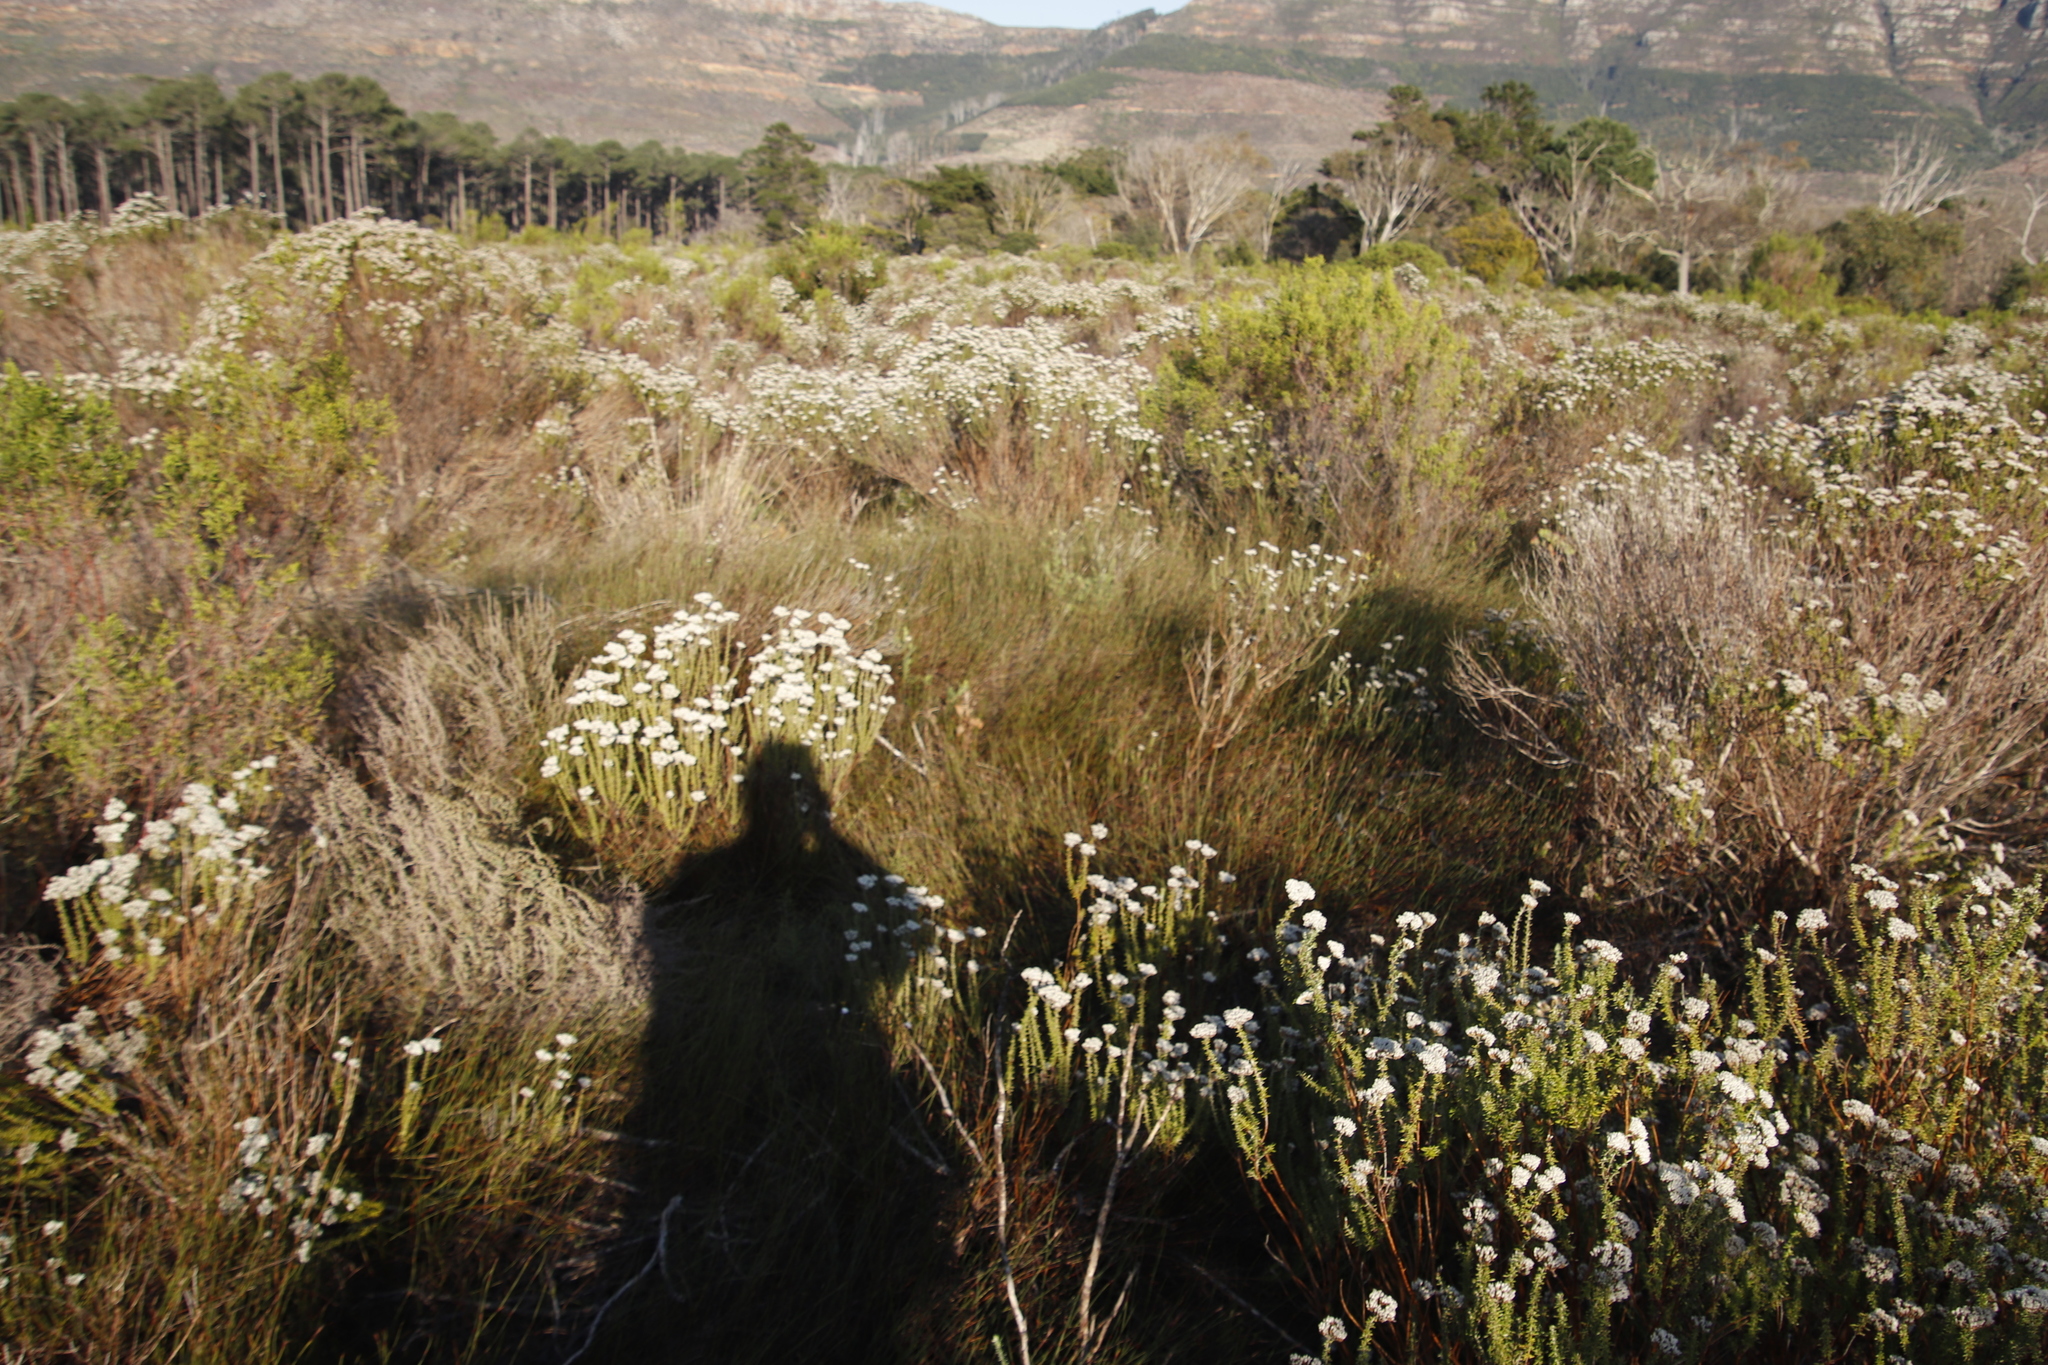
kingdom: Plantae
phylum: Tracheophyta
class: Liliopsida
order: Poales
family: Restionaceae
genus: Willdenowia
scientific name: Willdenowia sulcata
